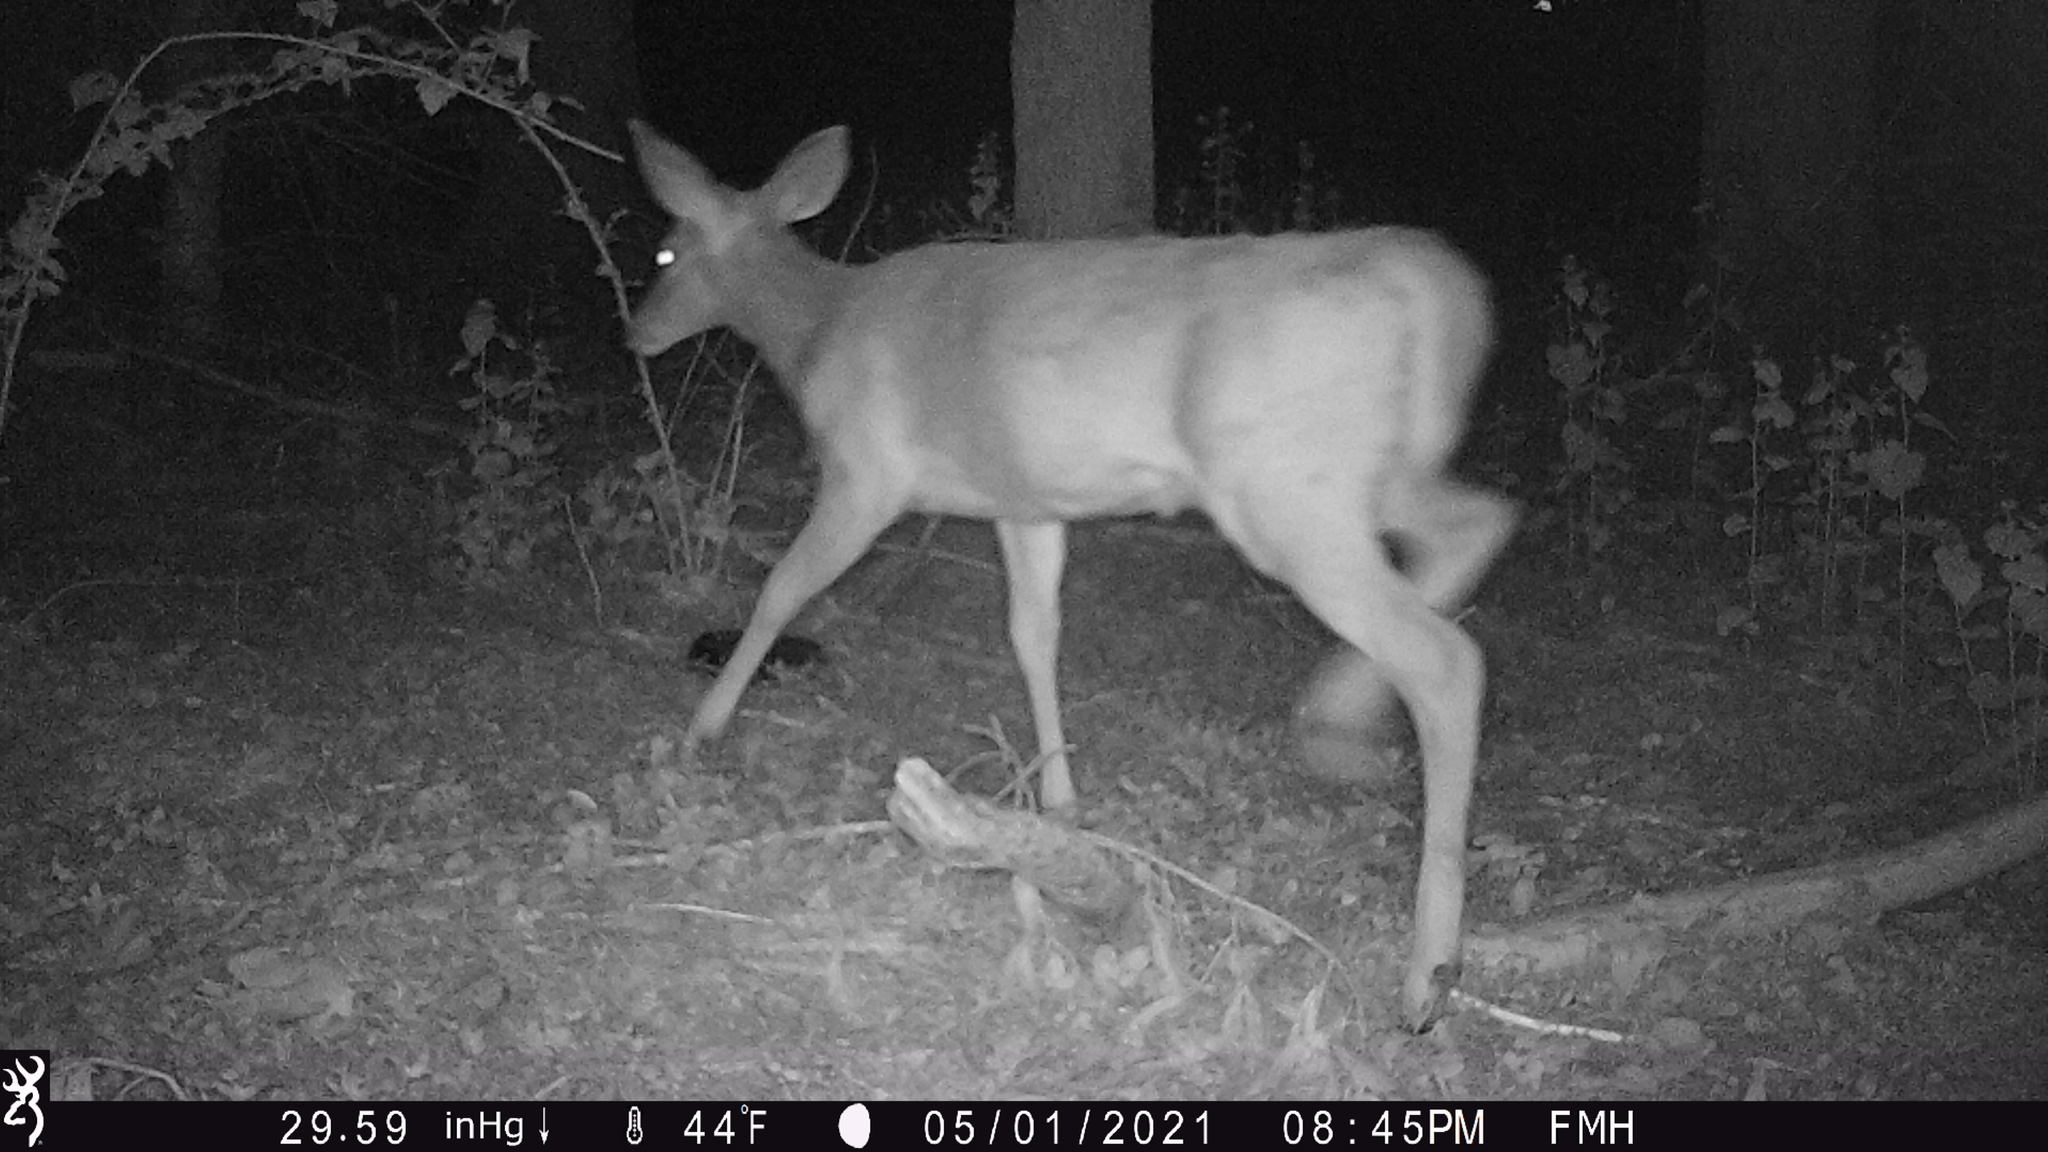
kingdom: Animalia
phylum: Chordata
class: Mammalia
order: Artiodactyla
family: Cervidae
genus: Odocoileus
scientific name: Odocoileus virginianus
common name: White-tailed deer
